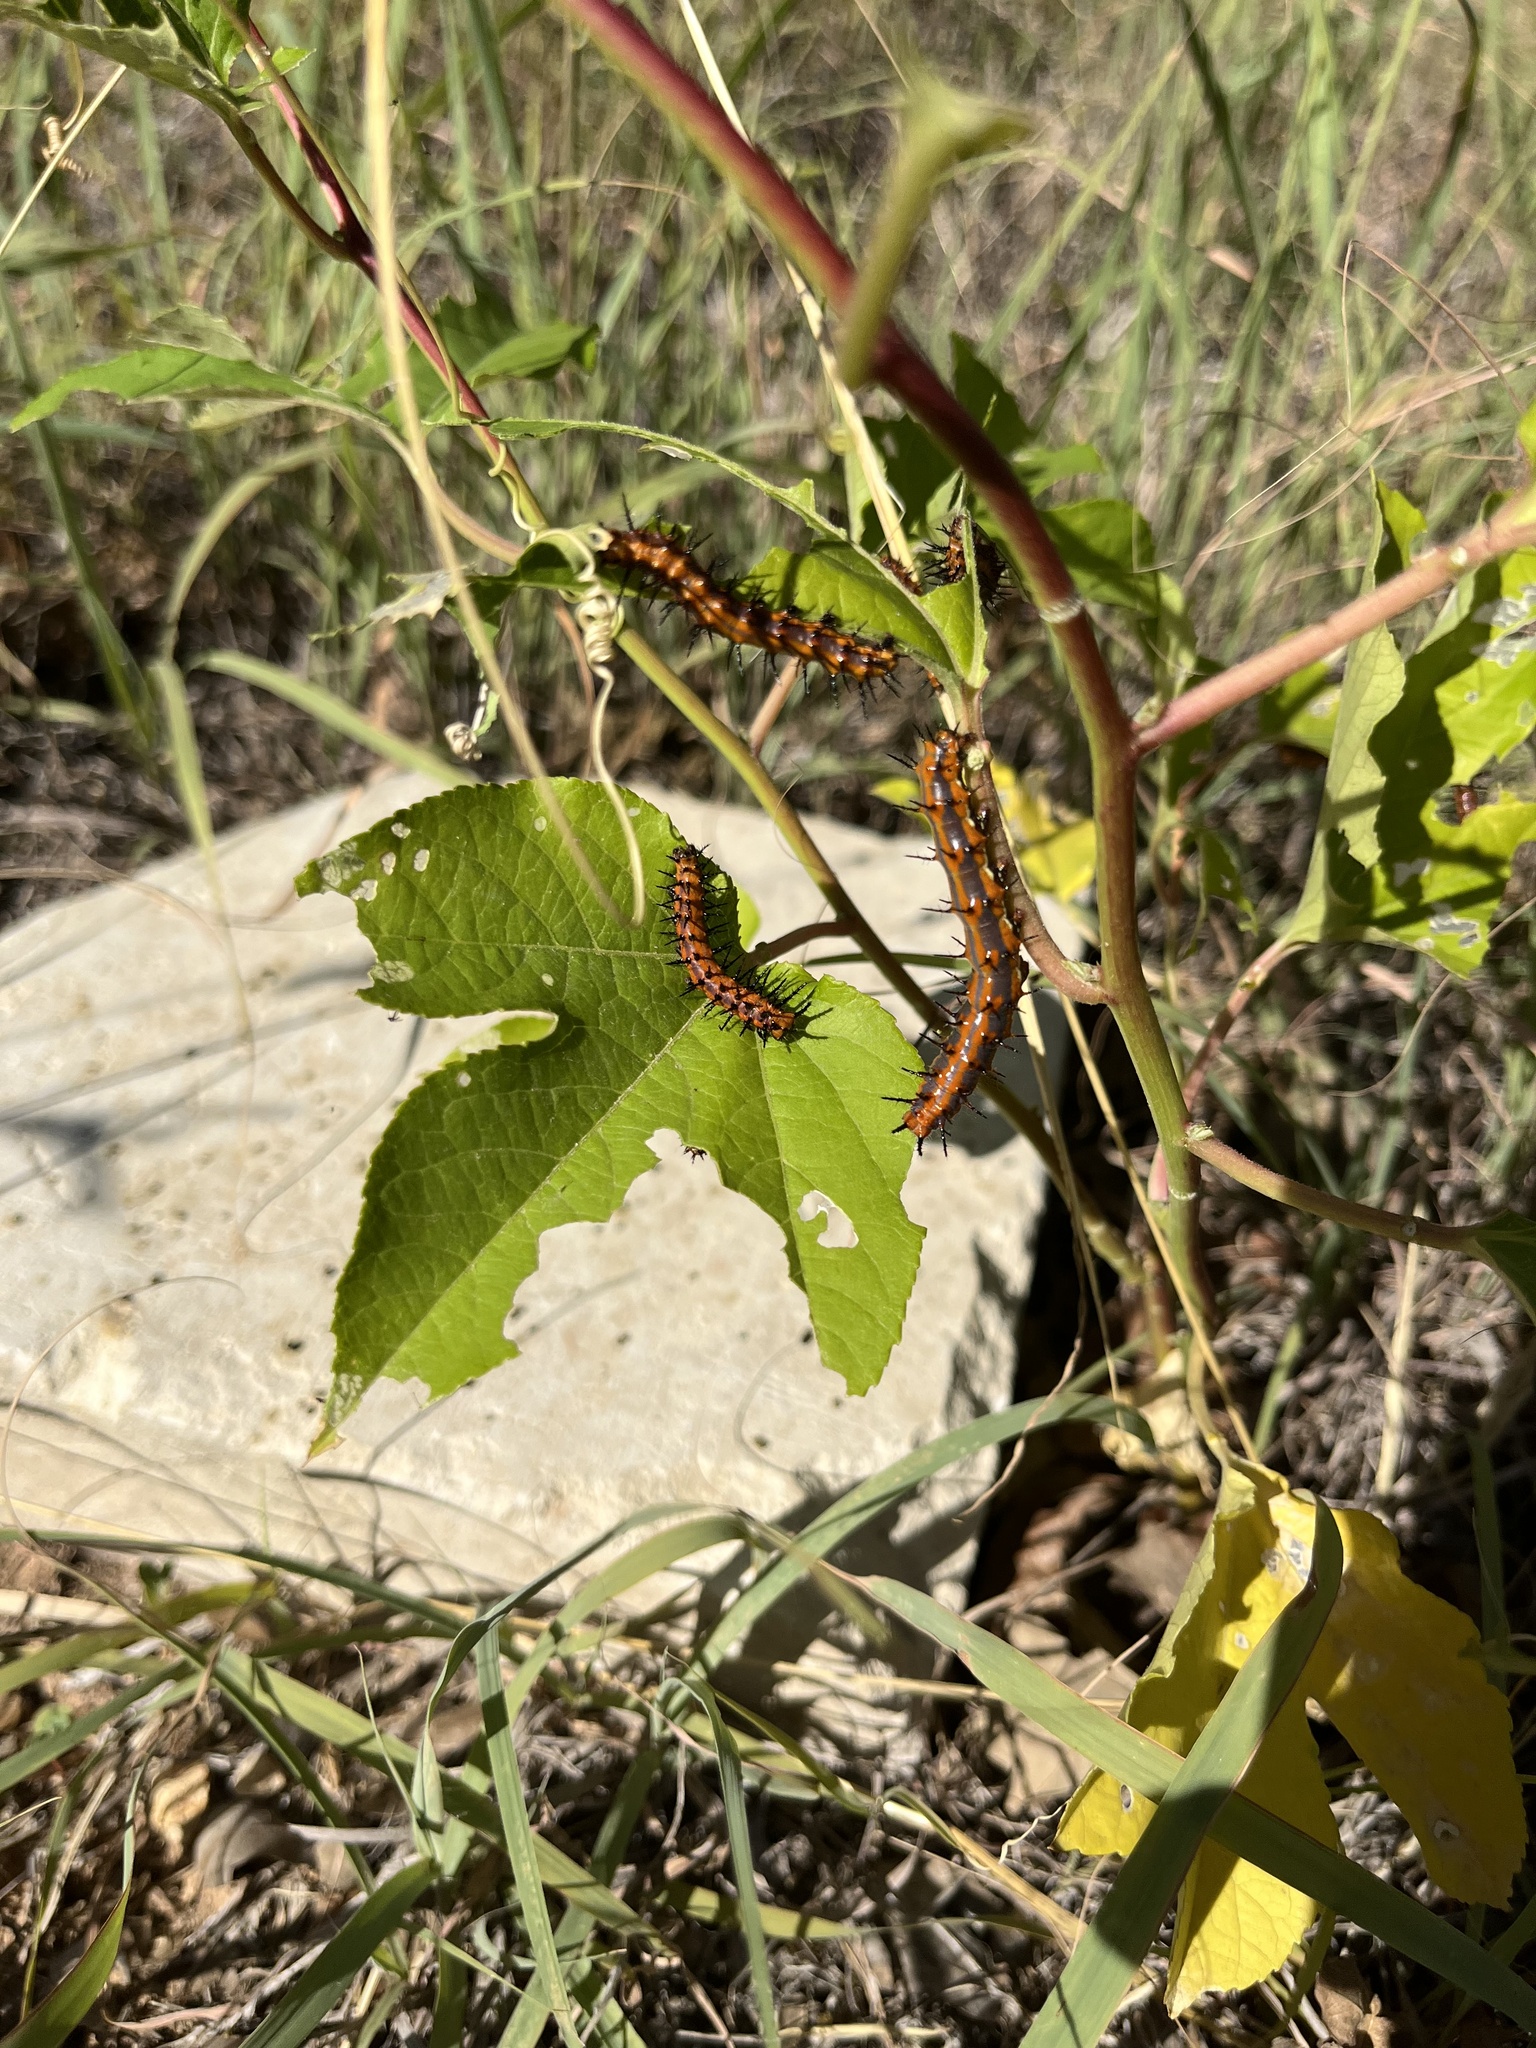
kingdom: Animalia
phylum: Arthropoda
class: Insecta
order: Lepidoptera
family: Nymphalidae
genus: Dione
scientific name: Dione vanillae
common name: Gulf fritillary
